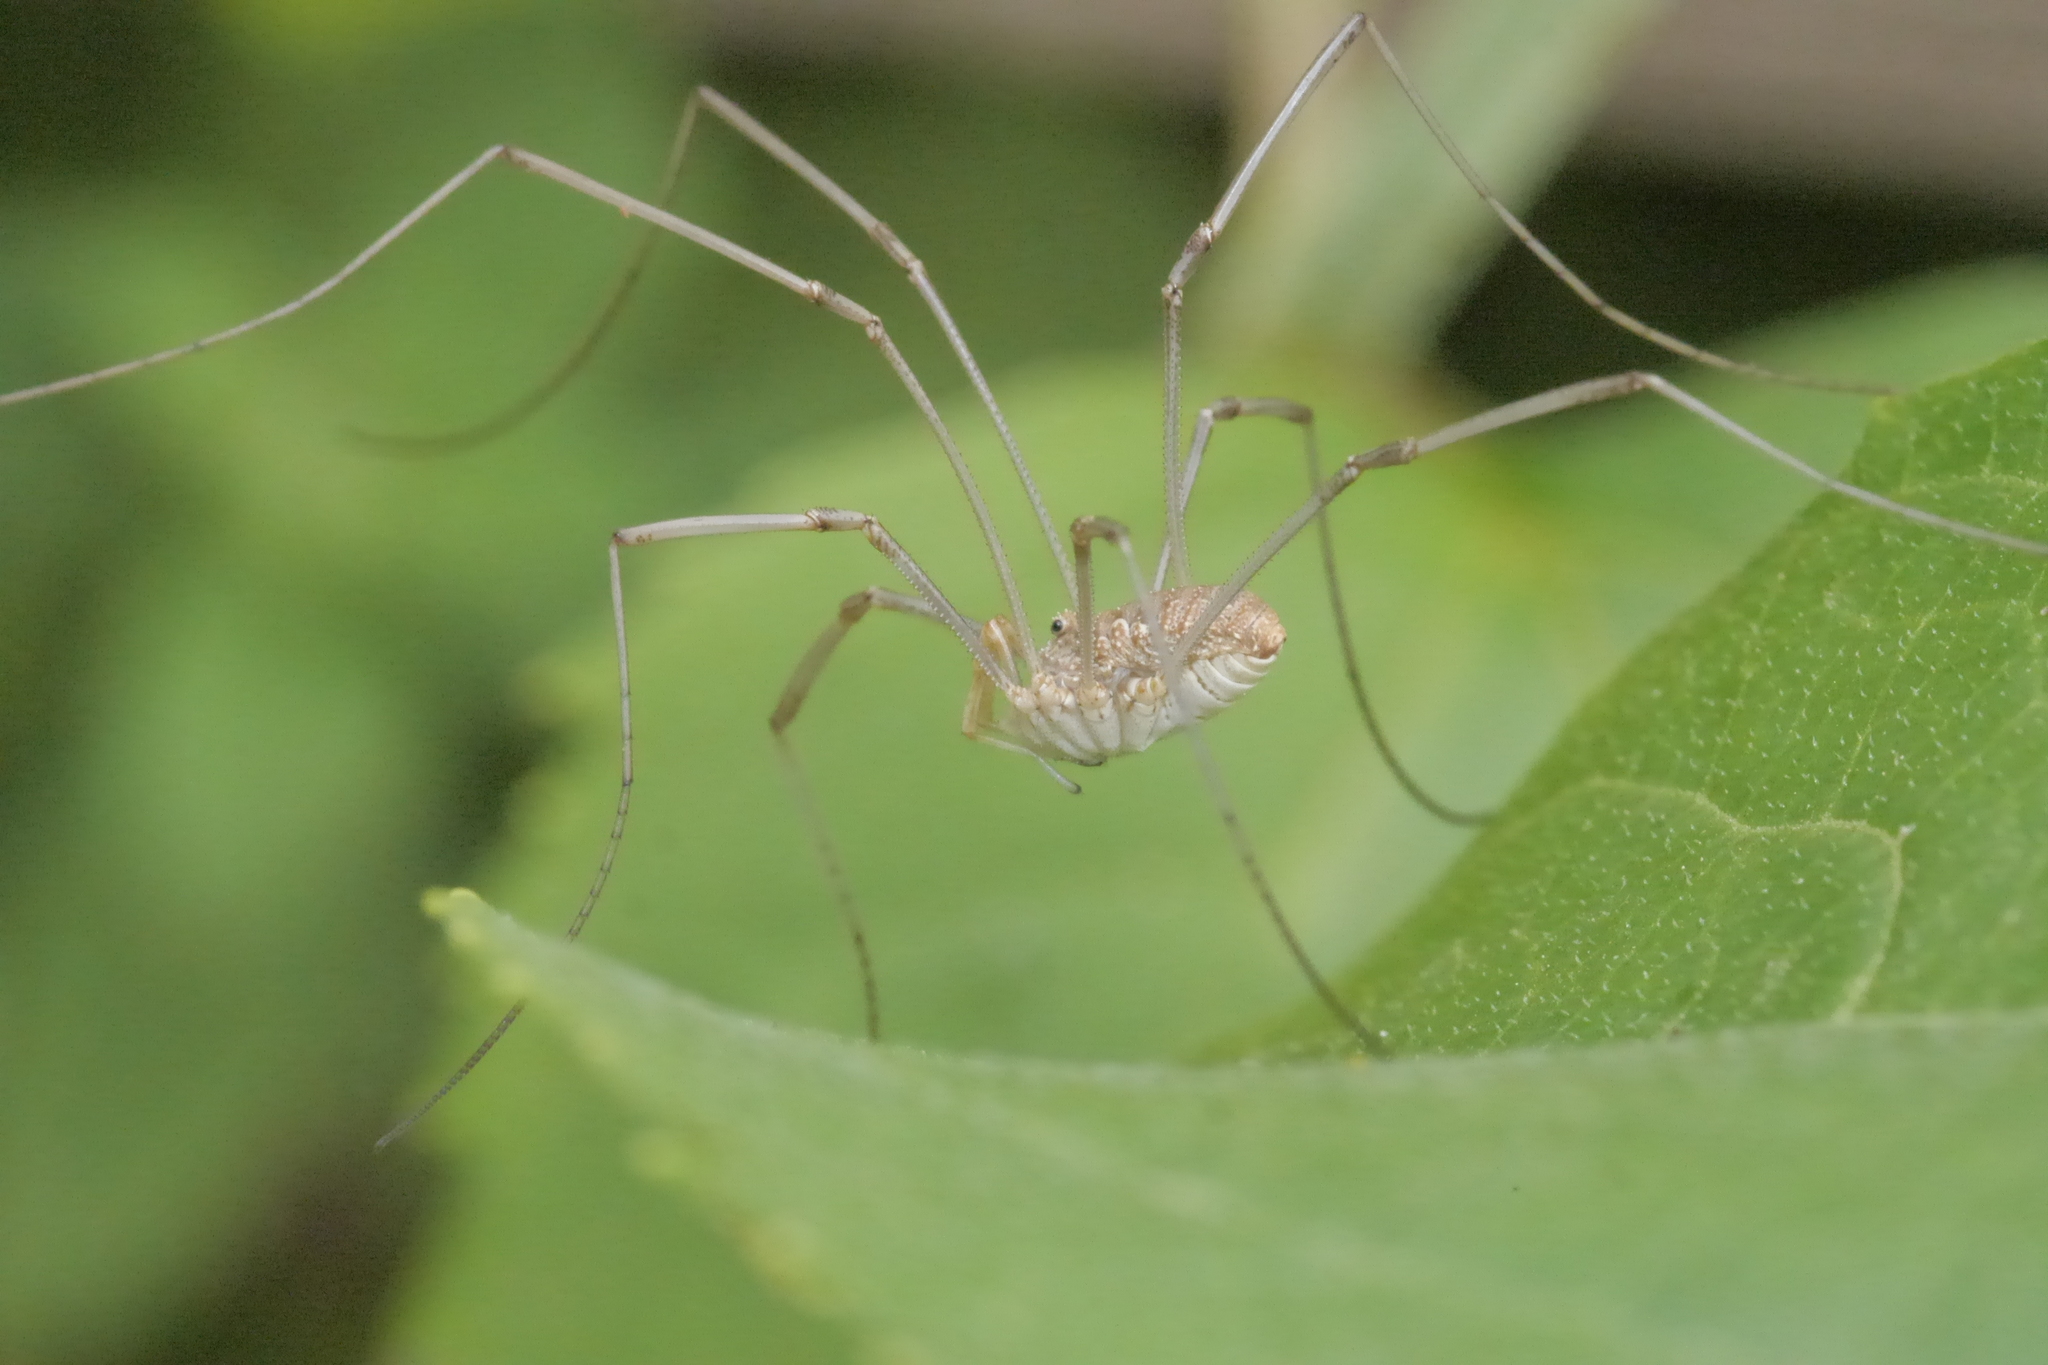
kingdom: Animalia
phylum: Arthropoda
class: Arachnida
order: Opiliones
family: Phalangiidae
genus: Phalangium
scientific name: Phalangium opilio
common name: Daddy longleg
